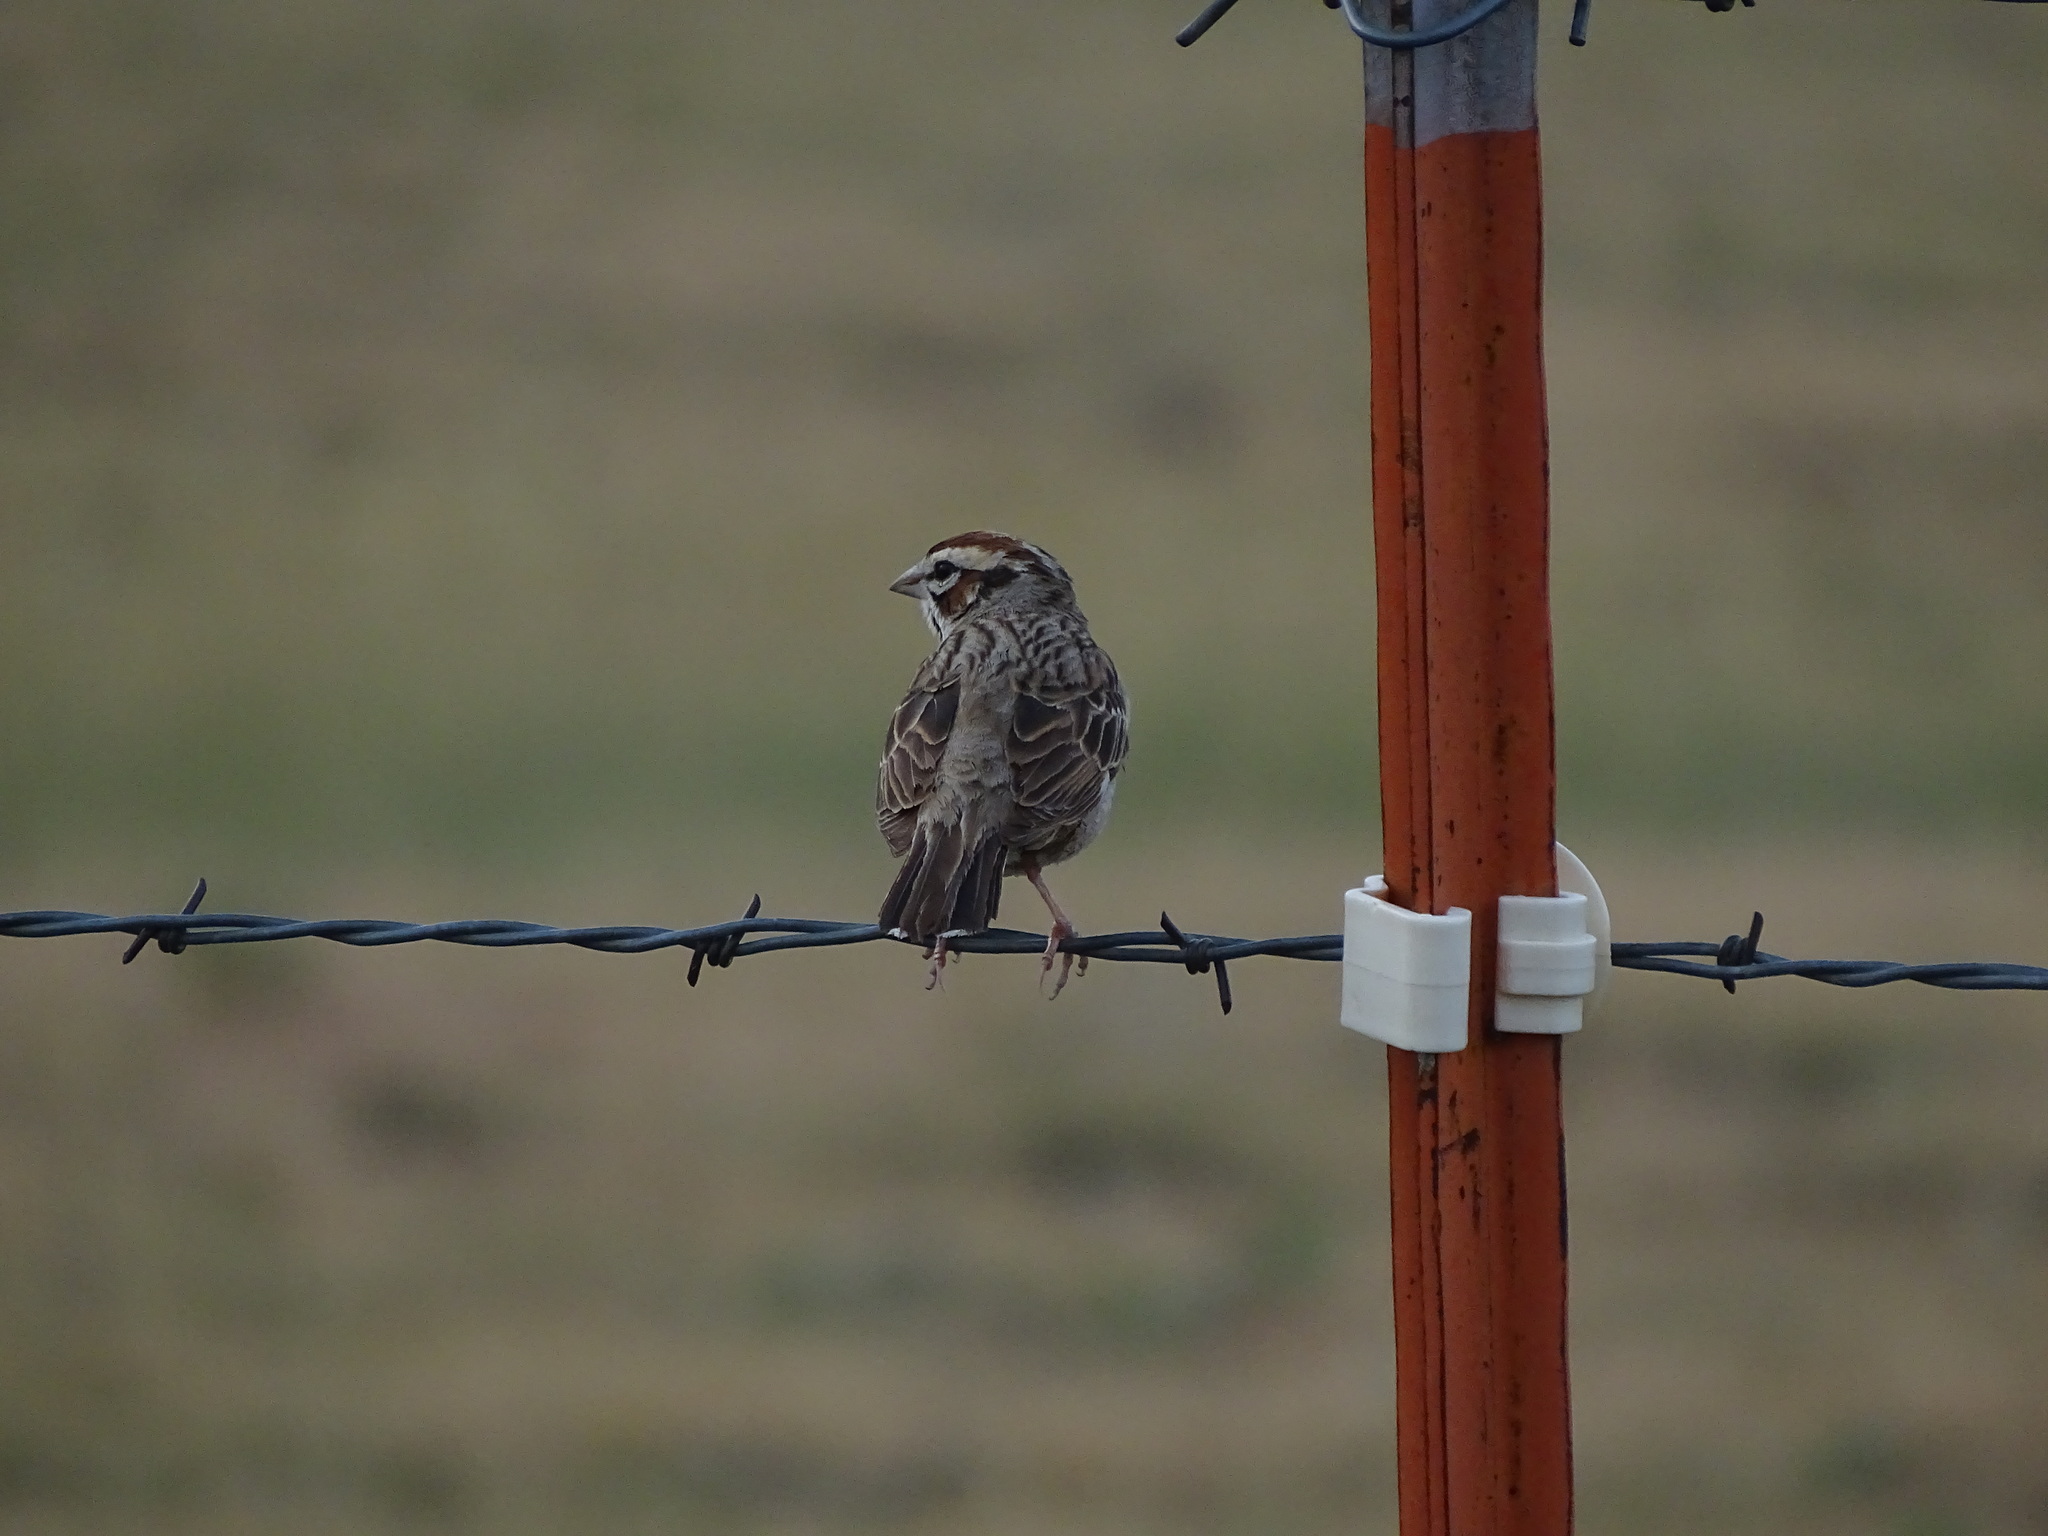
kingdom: Animalia
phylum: Chordata
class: Aves
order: Passeriformes
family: Passerellidae
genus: Chondestes
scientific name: Chondestes grammacus
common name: Lark sparrow
